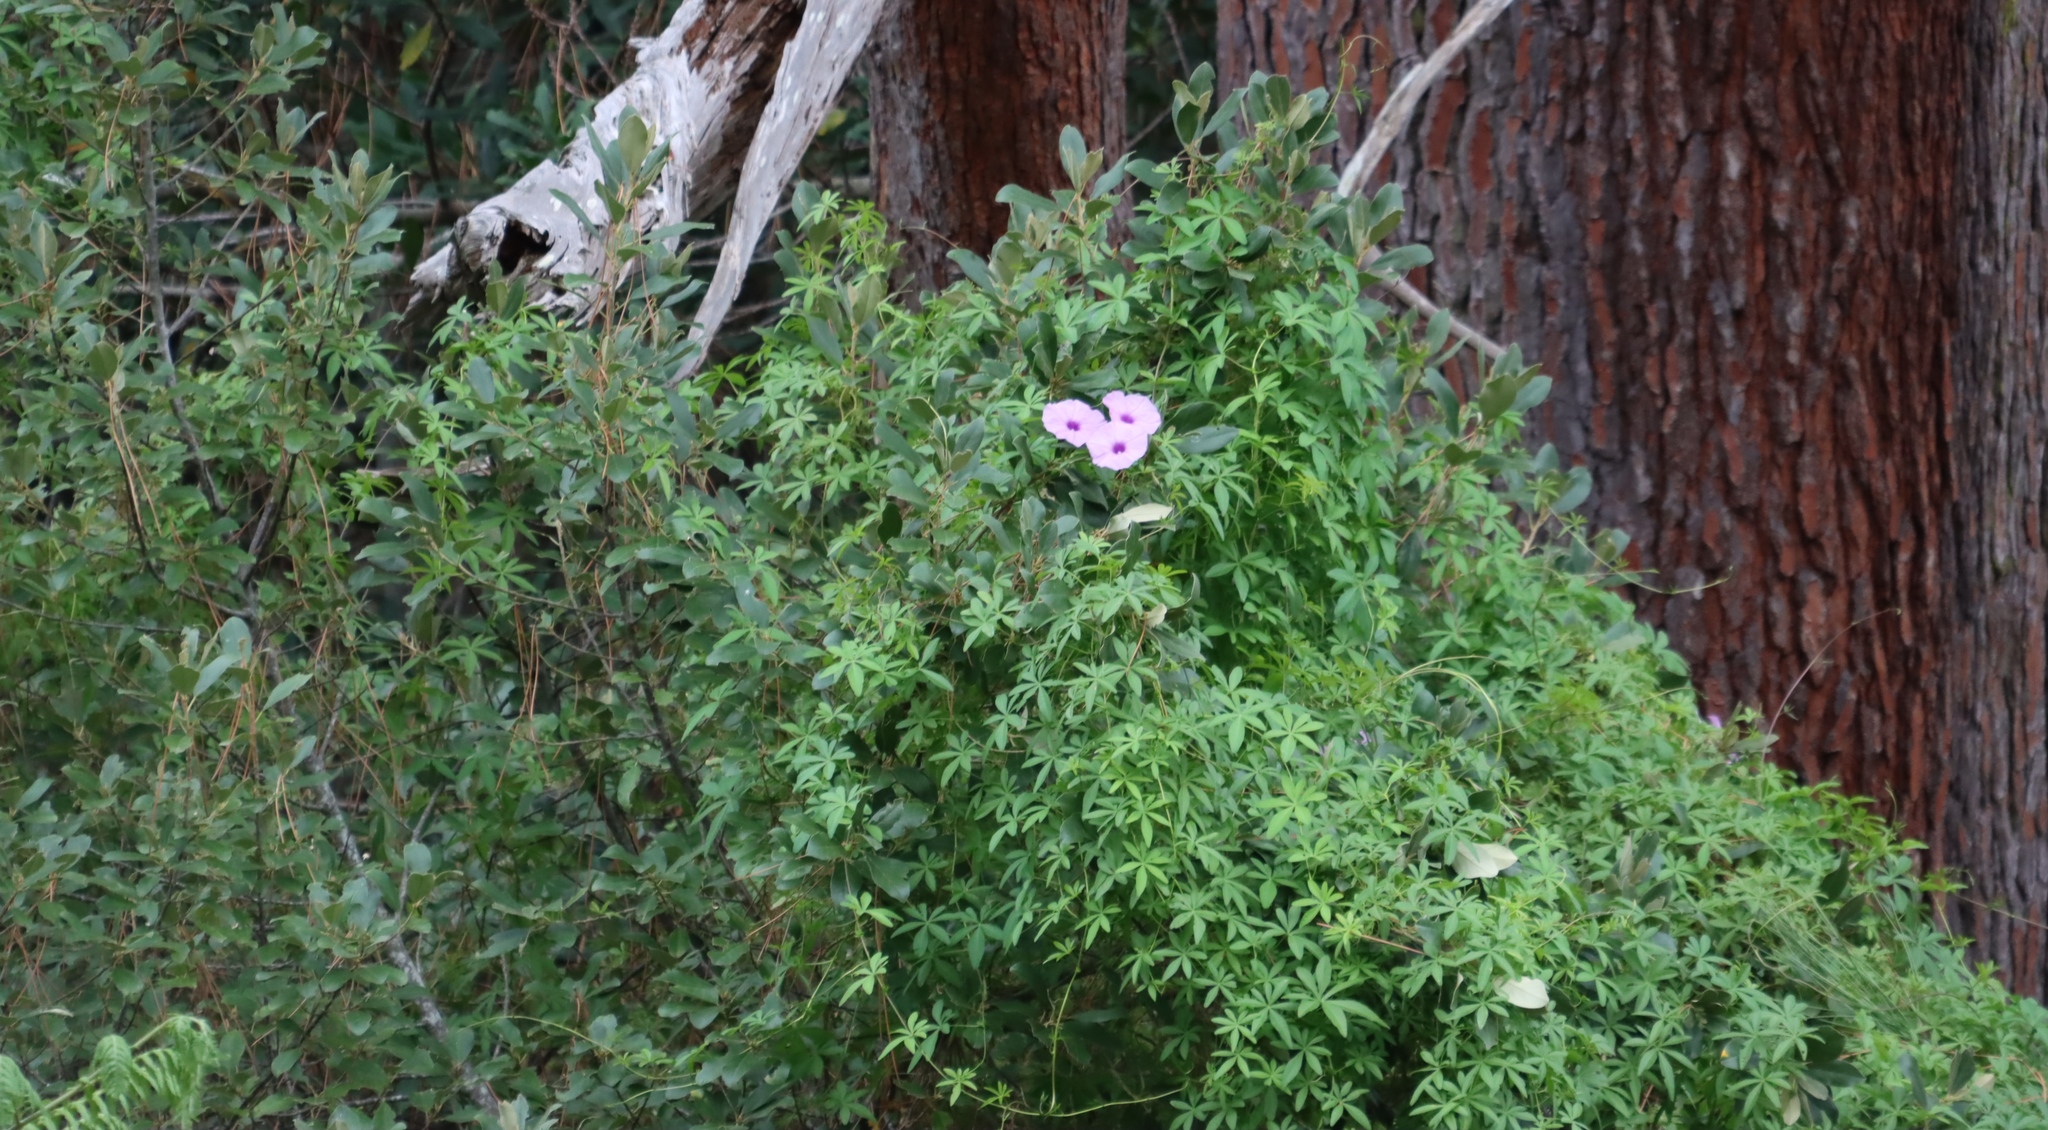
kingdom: Plantae
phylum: Tracheophyta
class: Magnoliopsida
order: Solanales
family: Convolvulaceae
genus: Ipomoea
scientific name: Ipomoea cairica
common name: Mile a minute vine
